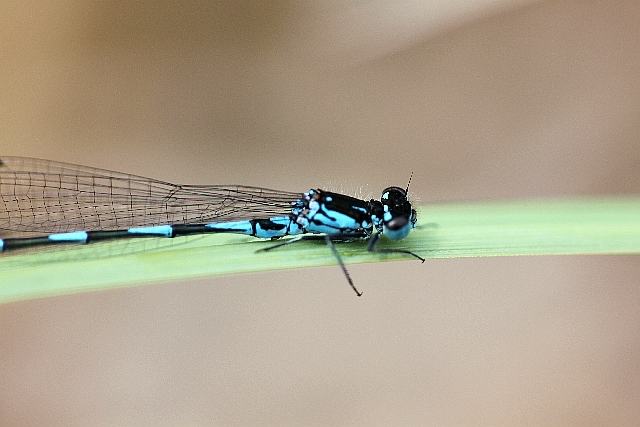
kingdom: Animalia
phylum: Arthropoda
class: Insecta
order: Odonata
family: Coenagrionidae
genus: Coenagrion
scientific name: Coenagrion pulchellum
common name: Variable bluet
